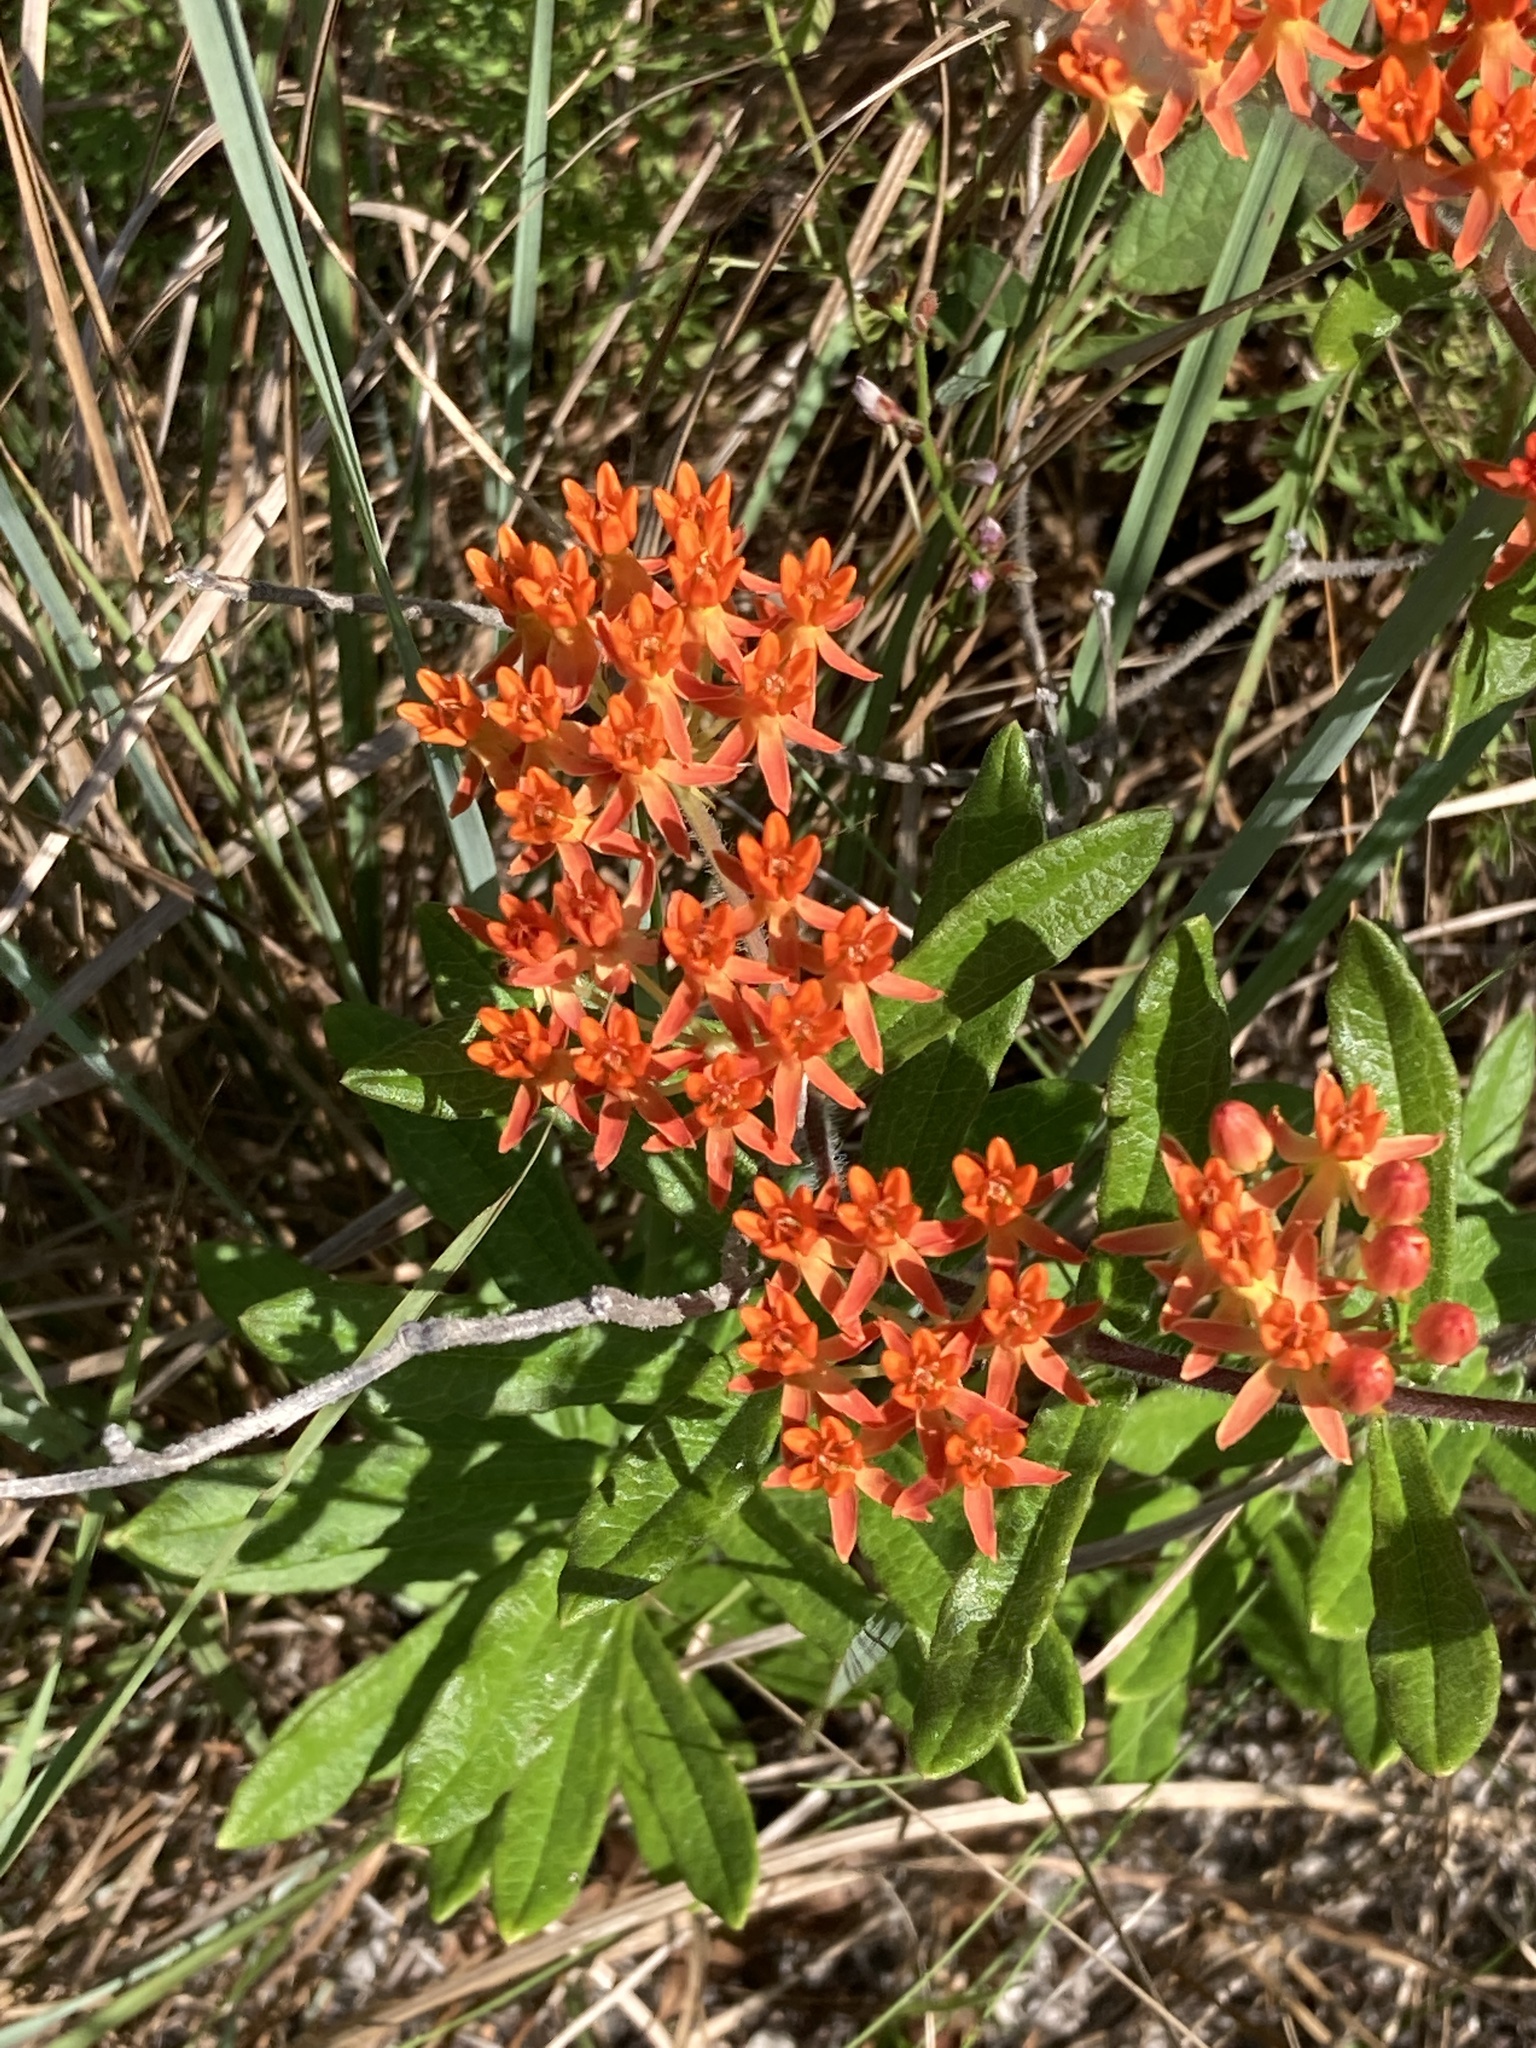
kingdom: Plantae
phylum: Tracheophyta
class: Magnoliopsida
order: Gentianales
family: Apocynaceae
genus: Asclepias
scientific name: Asclepias tuberosa
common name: Butterfly milkweed
